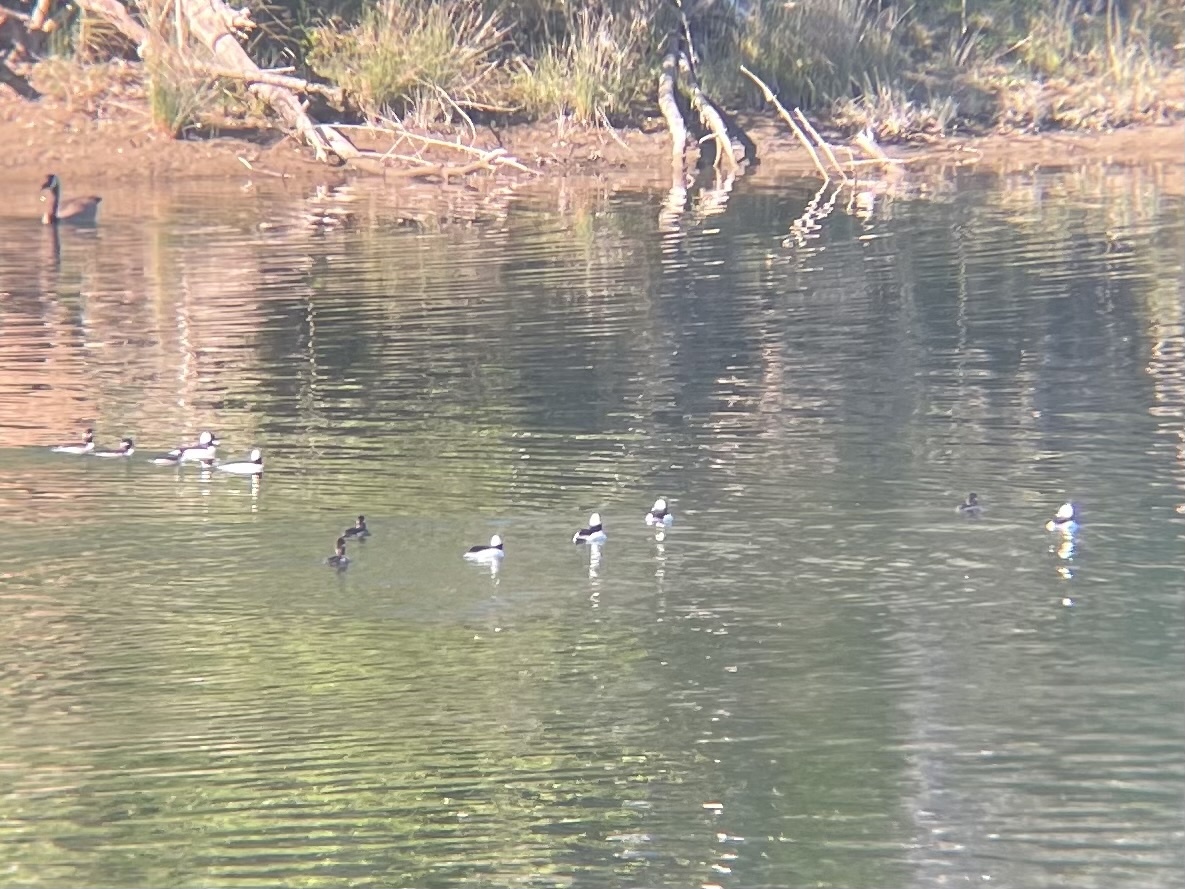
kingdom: Animalia
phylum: Chordata
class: Aves
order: Anseriformes
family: Anatidae
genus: Bucephala
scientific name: Bucephala albeola
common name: Bufflehead
